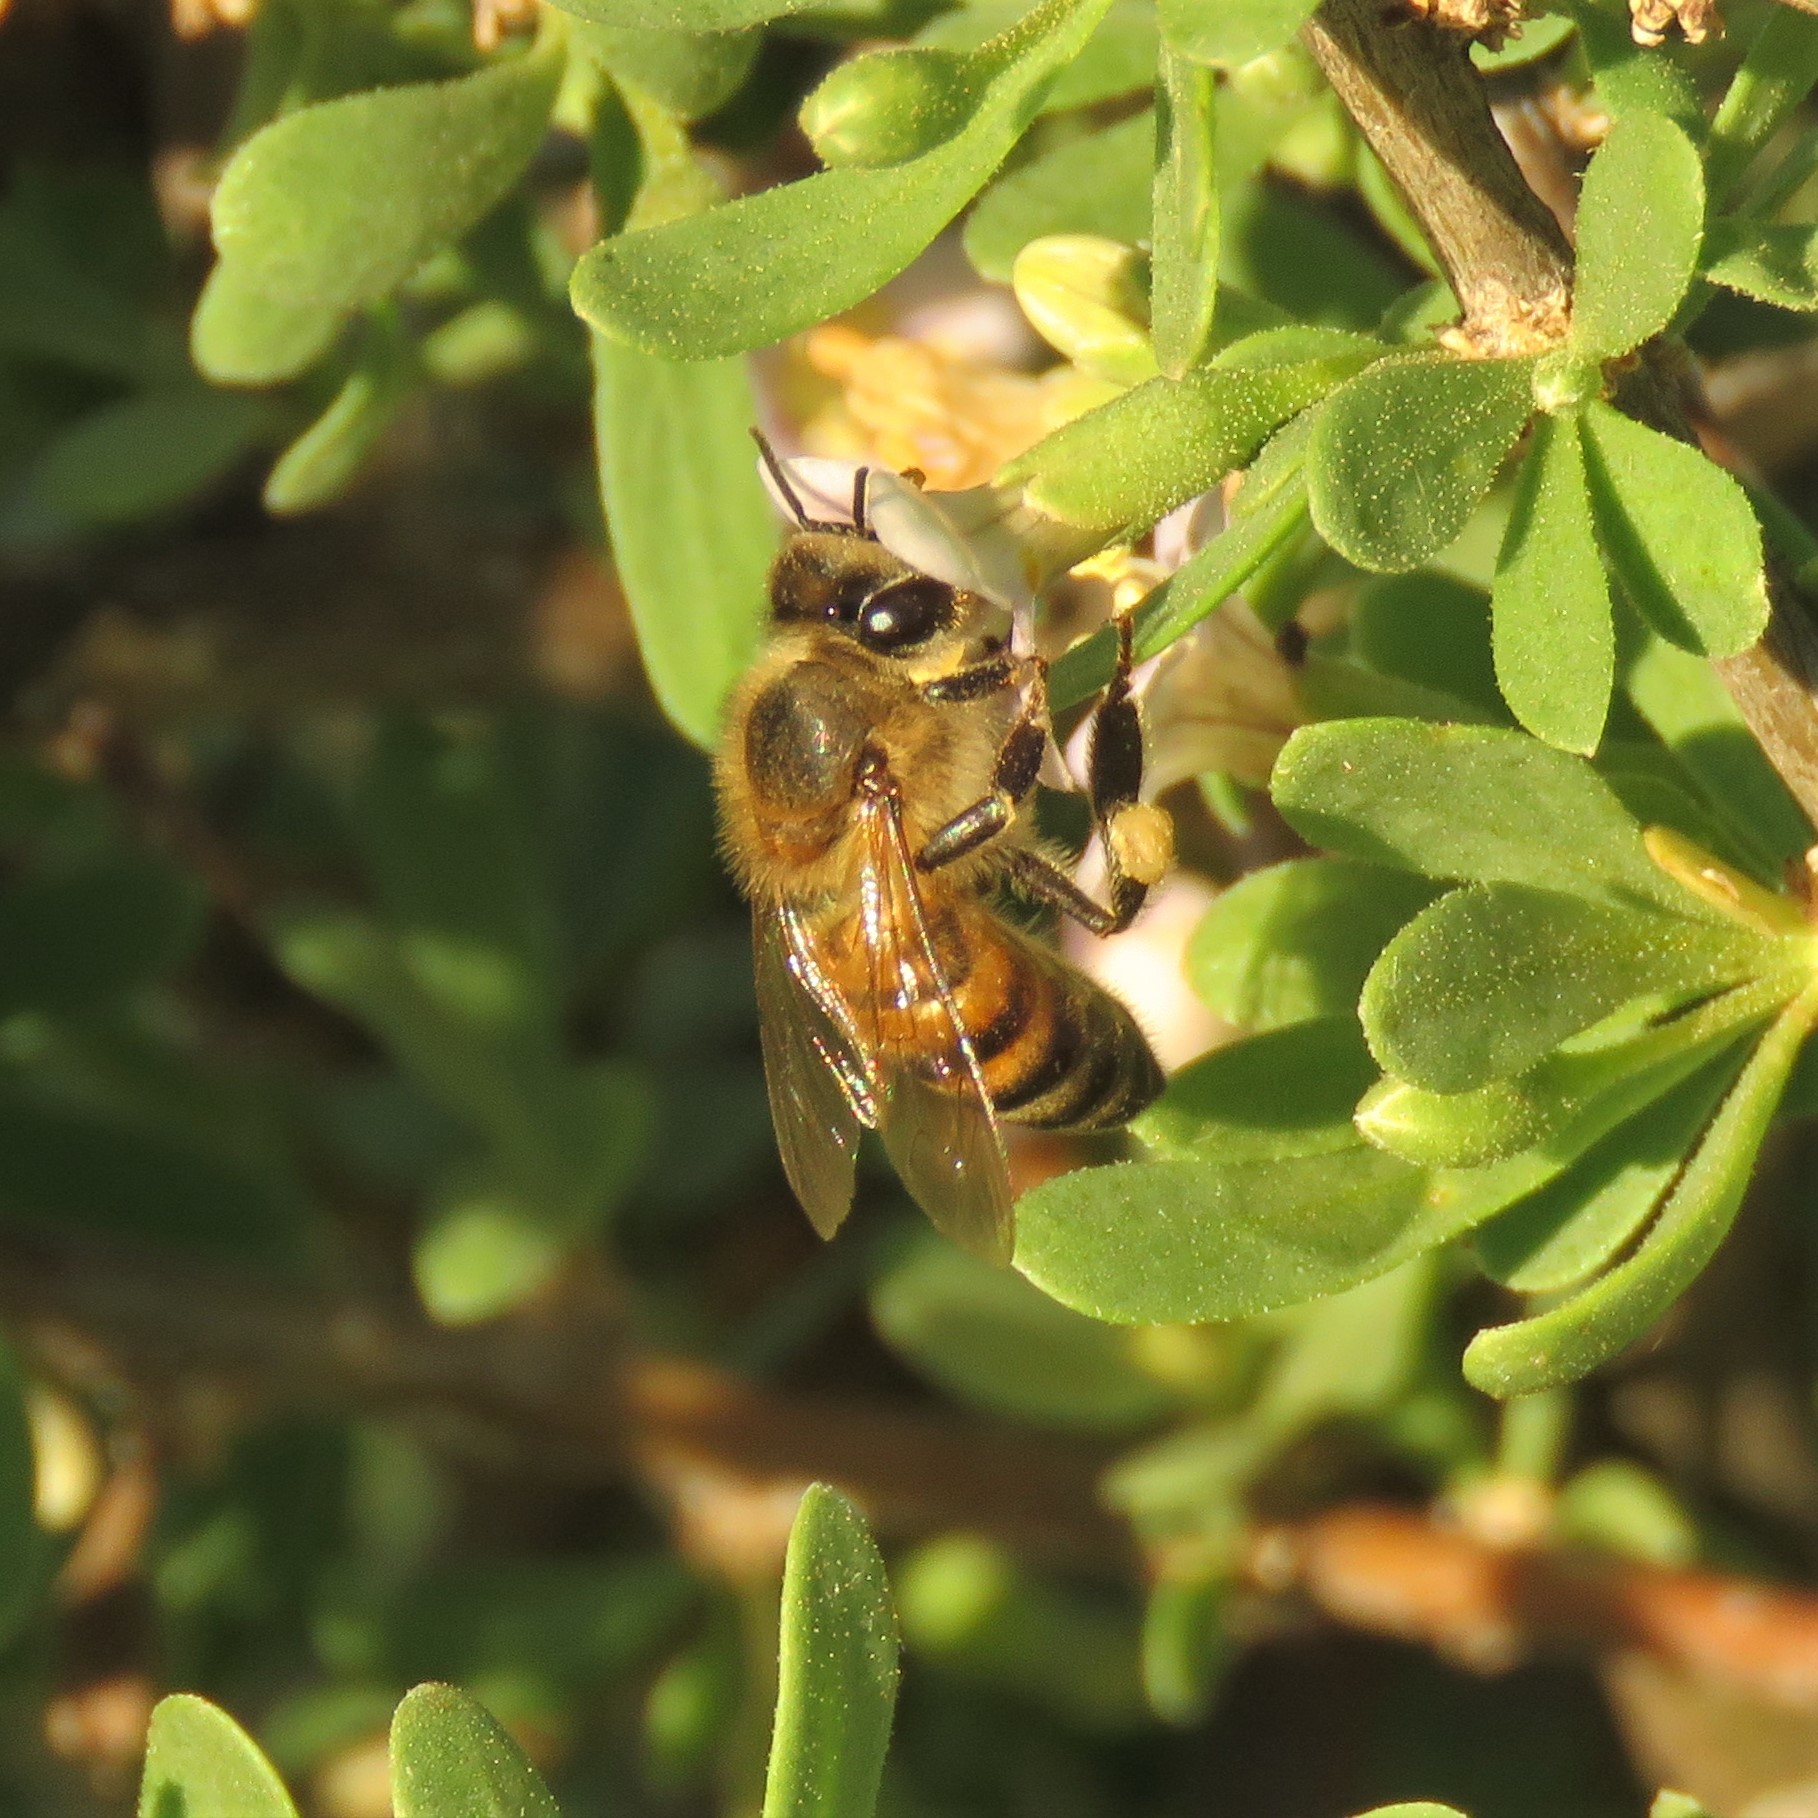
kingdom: Animalia
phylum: Arthropoda
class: Insecta
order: Hymenoptera
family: Apidae
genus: Apis
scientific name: Apis mellifera
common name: Honey bee
